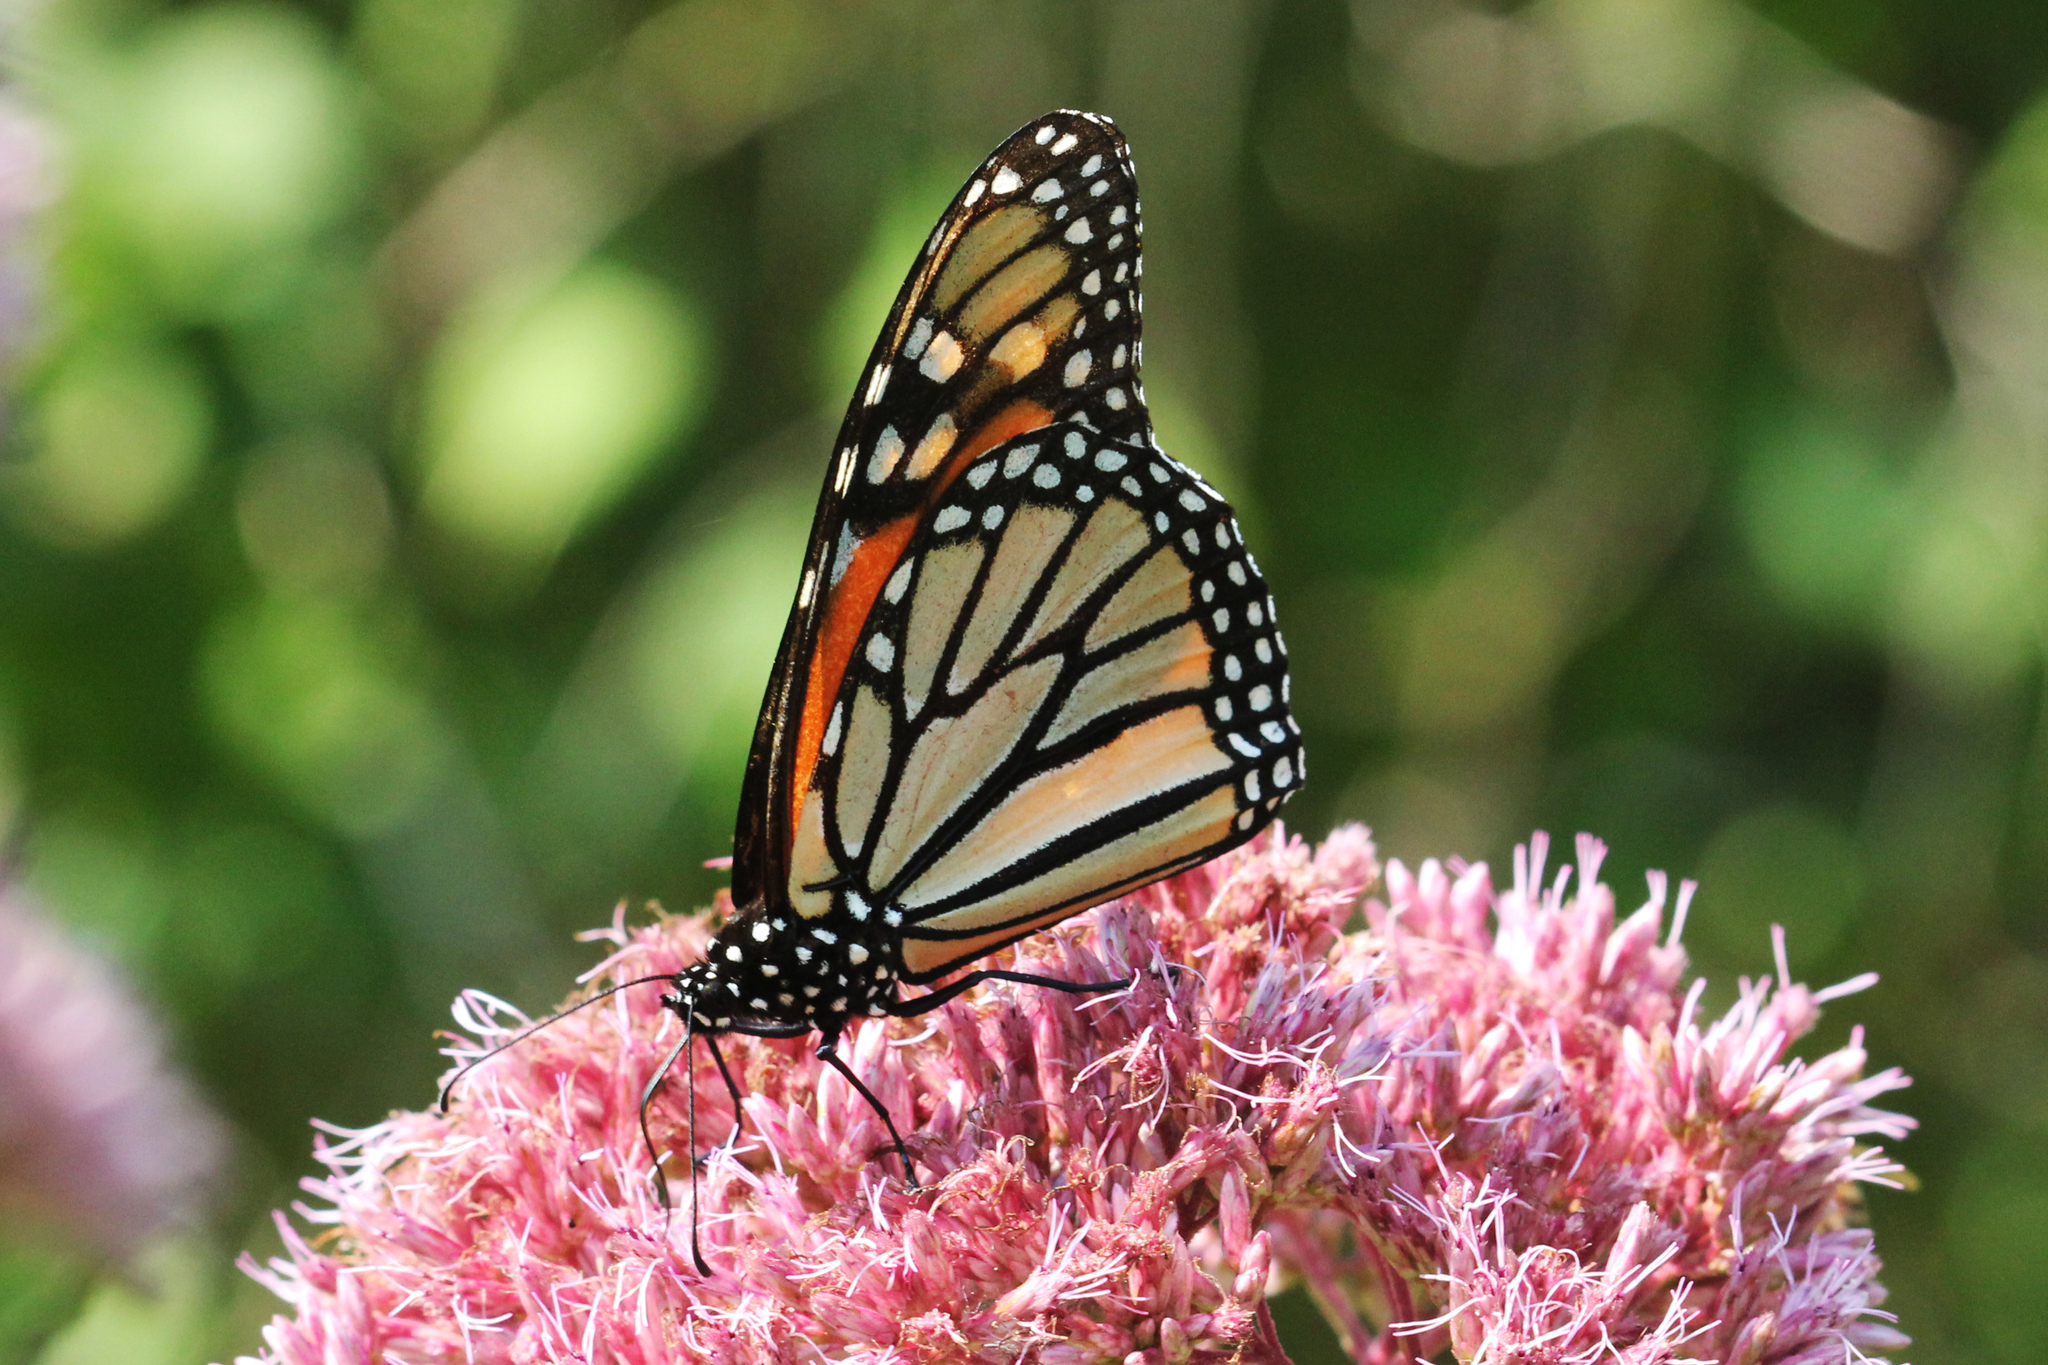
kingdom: Animalia
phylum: Arthropoda
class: Insecta
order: Lepidoptera
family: Nymphalidae
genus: Danaus
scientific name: Danaus plexippus
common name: Monarch
